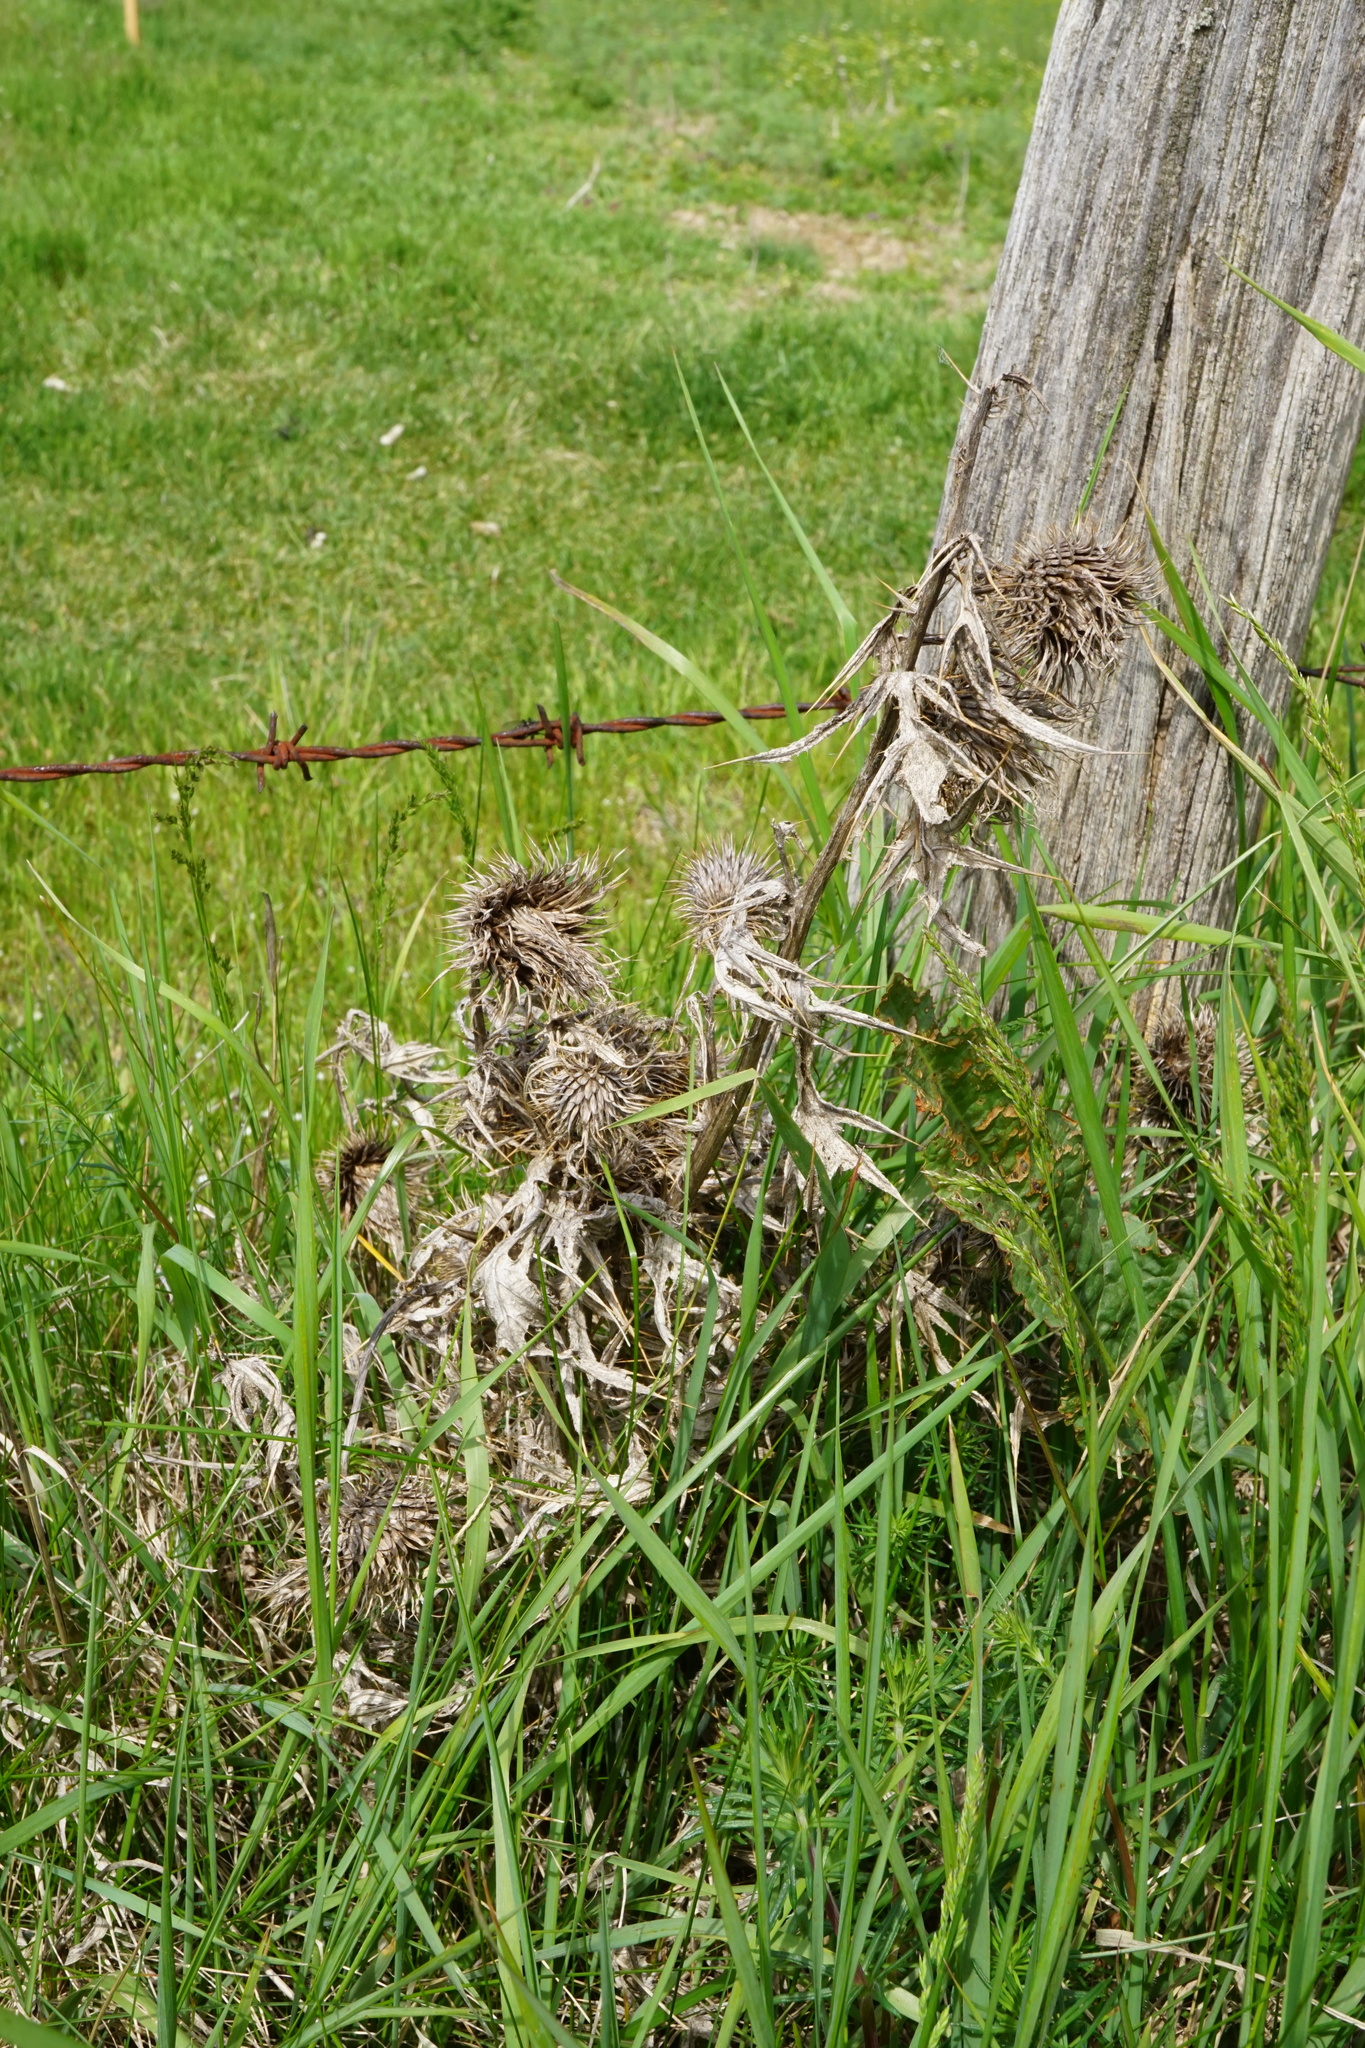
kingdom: Plantae
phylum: Tracheophyta
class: Magnoliopsida
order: Asterales
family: Asteraceae
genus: Cirsium
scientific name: Cirsium vulgare
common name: Bull thistle
